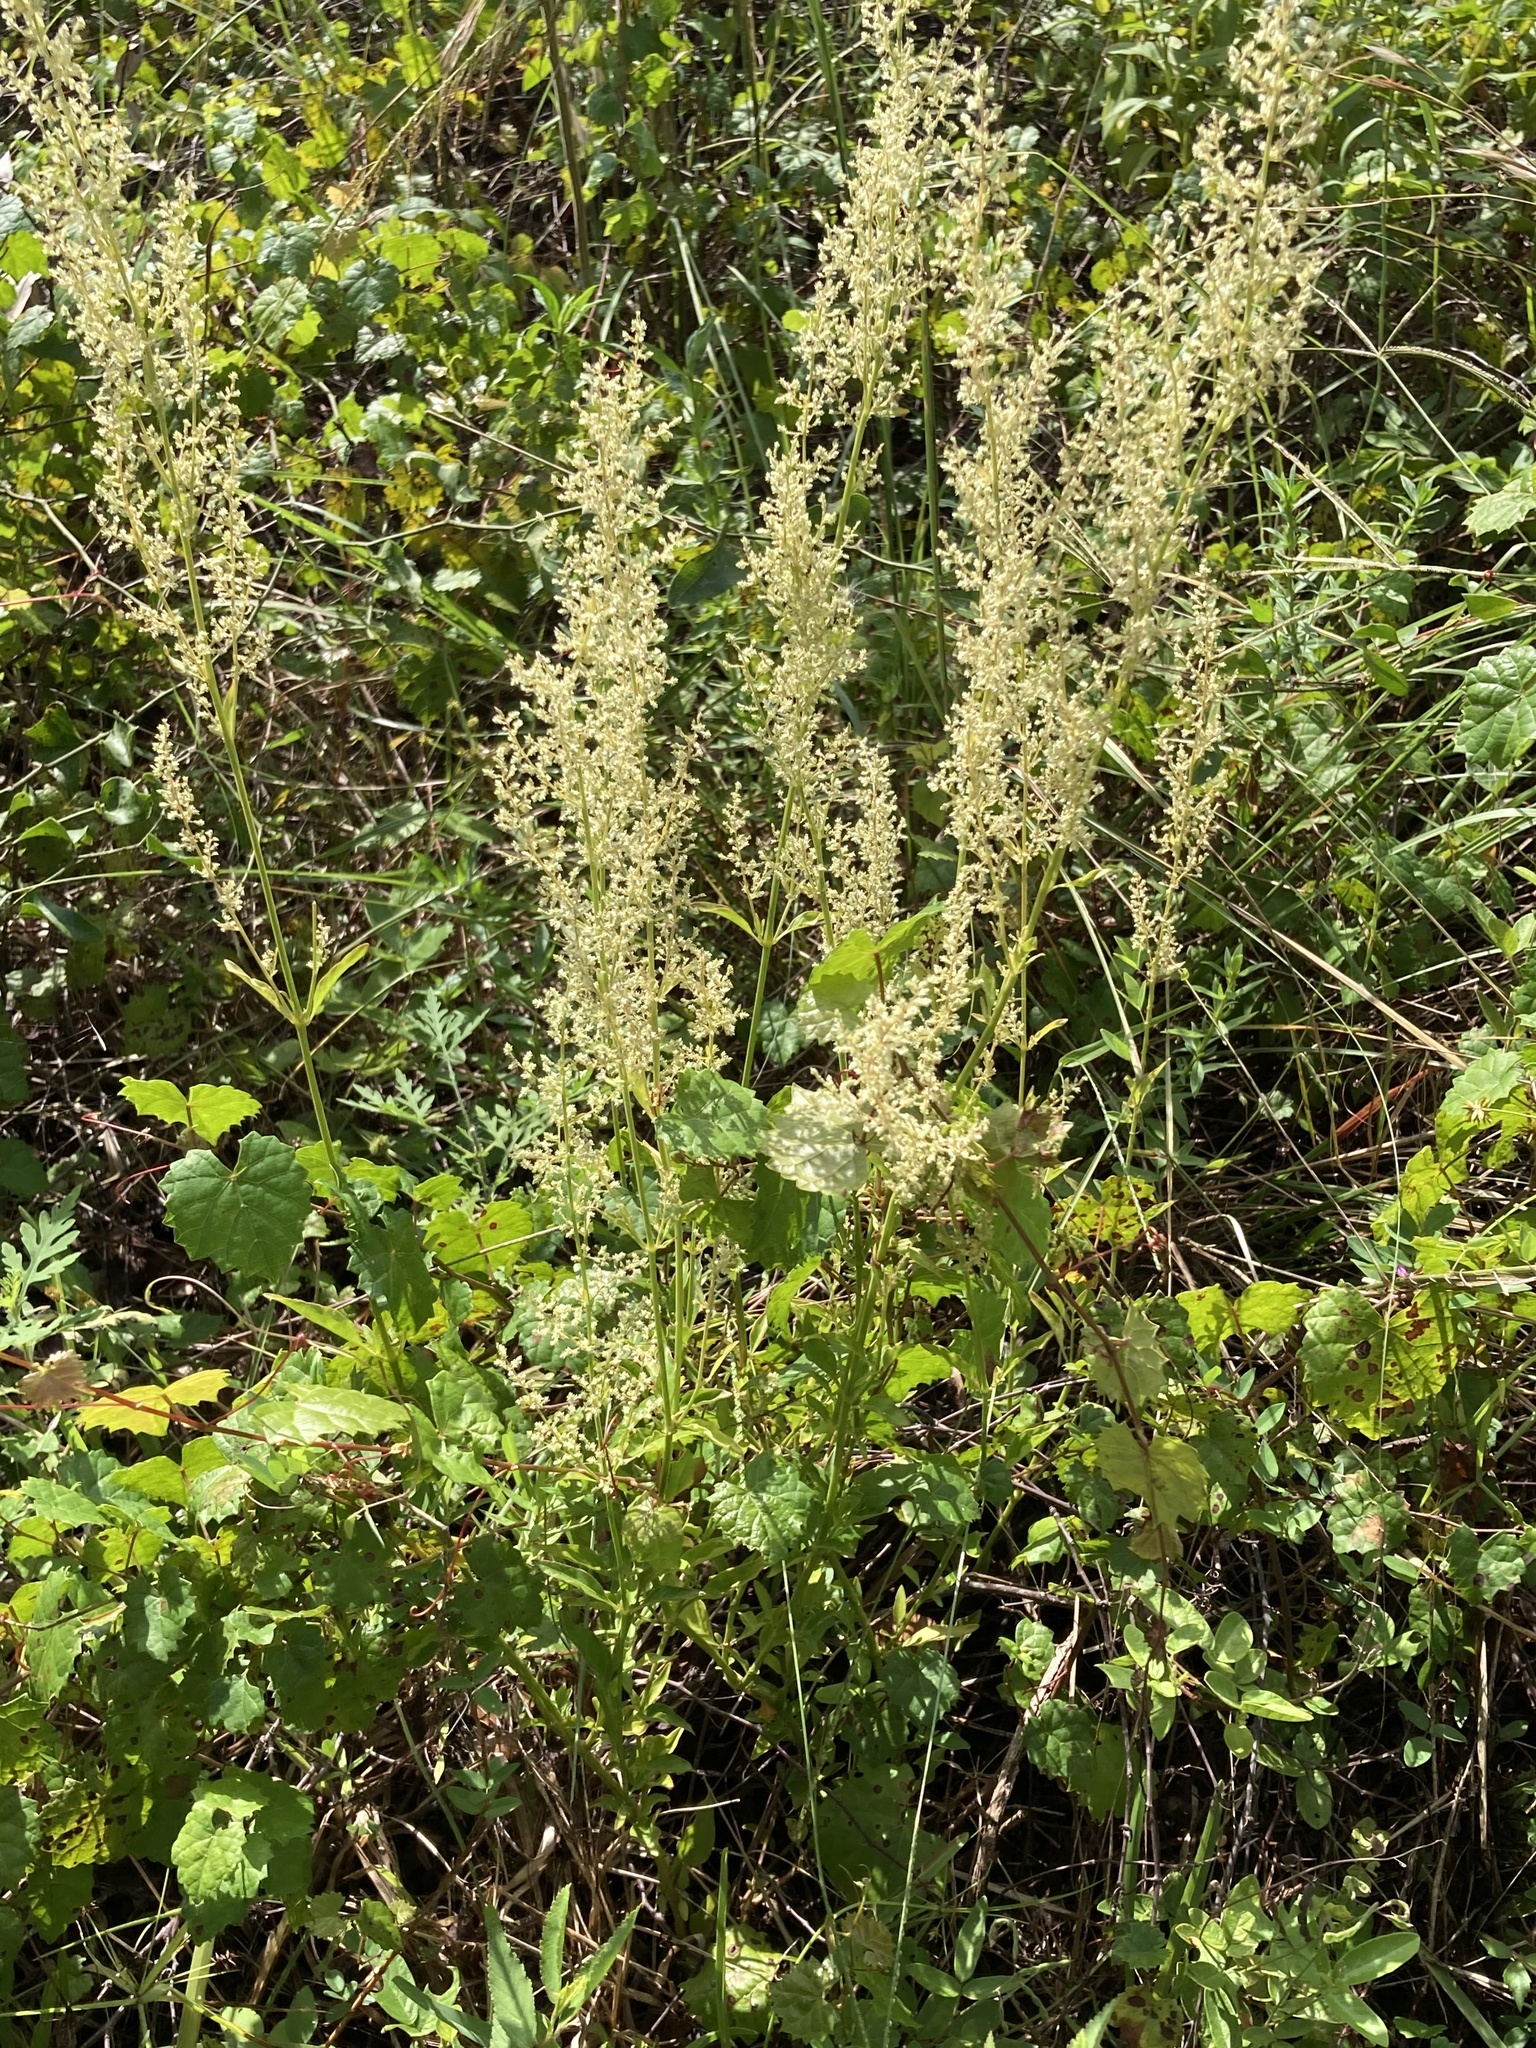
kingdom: Plantae
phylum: Tracheophyta
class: Magnoliopsida
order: Caryophyllales
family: Amaranthaceae
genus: Iresine
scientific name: Iresine diffusa
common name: Juba's-bush
